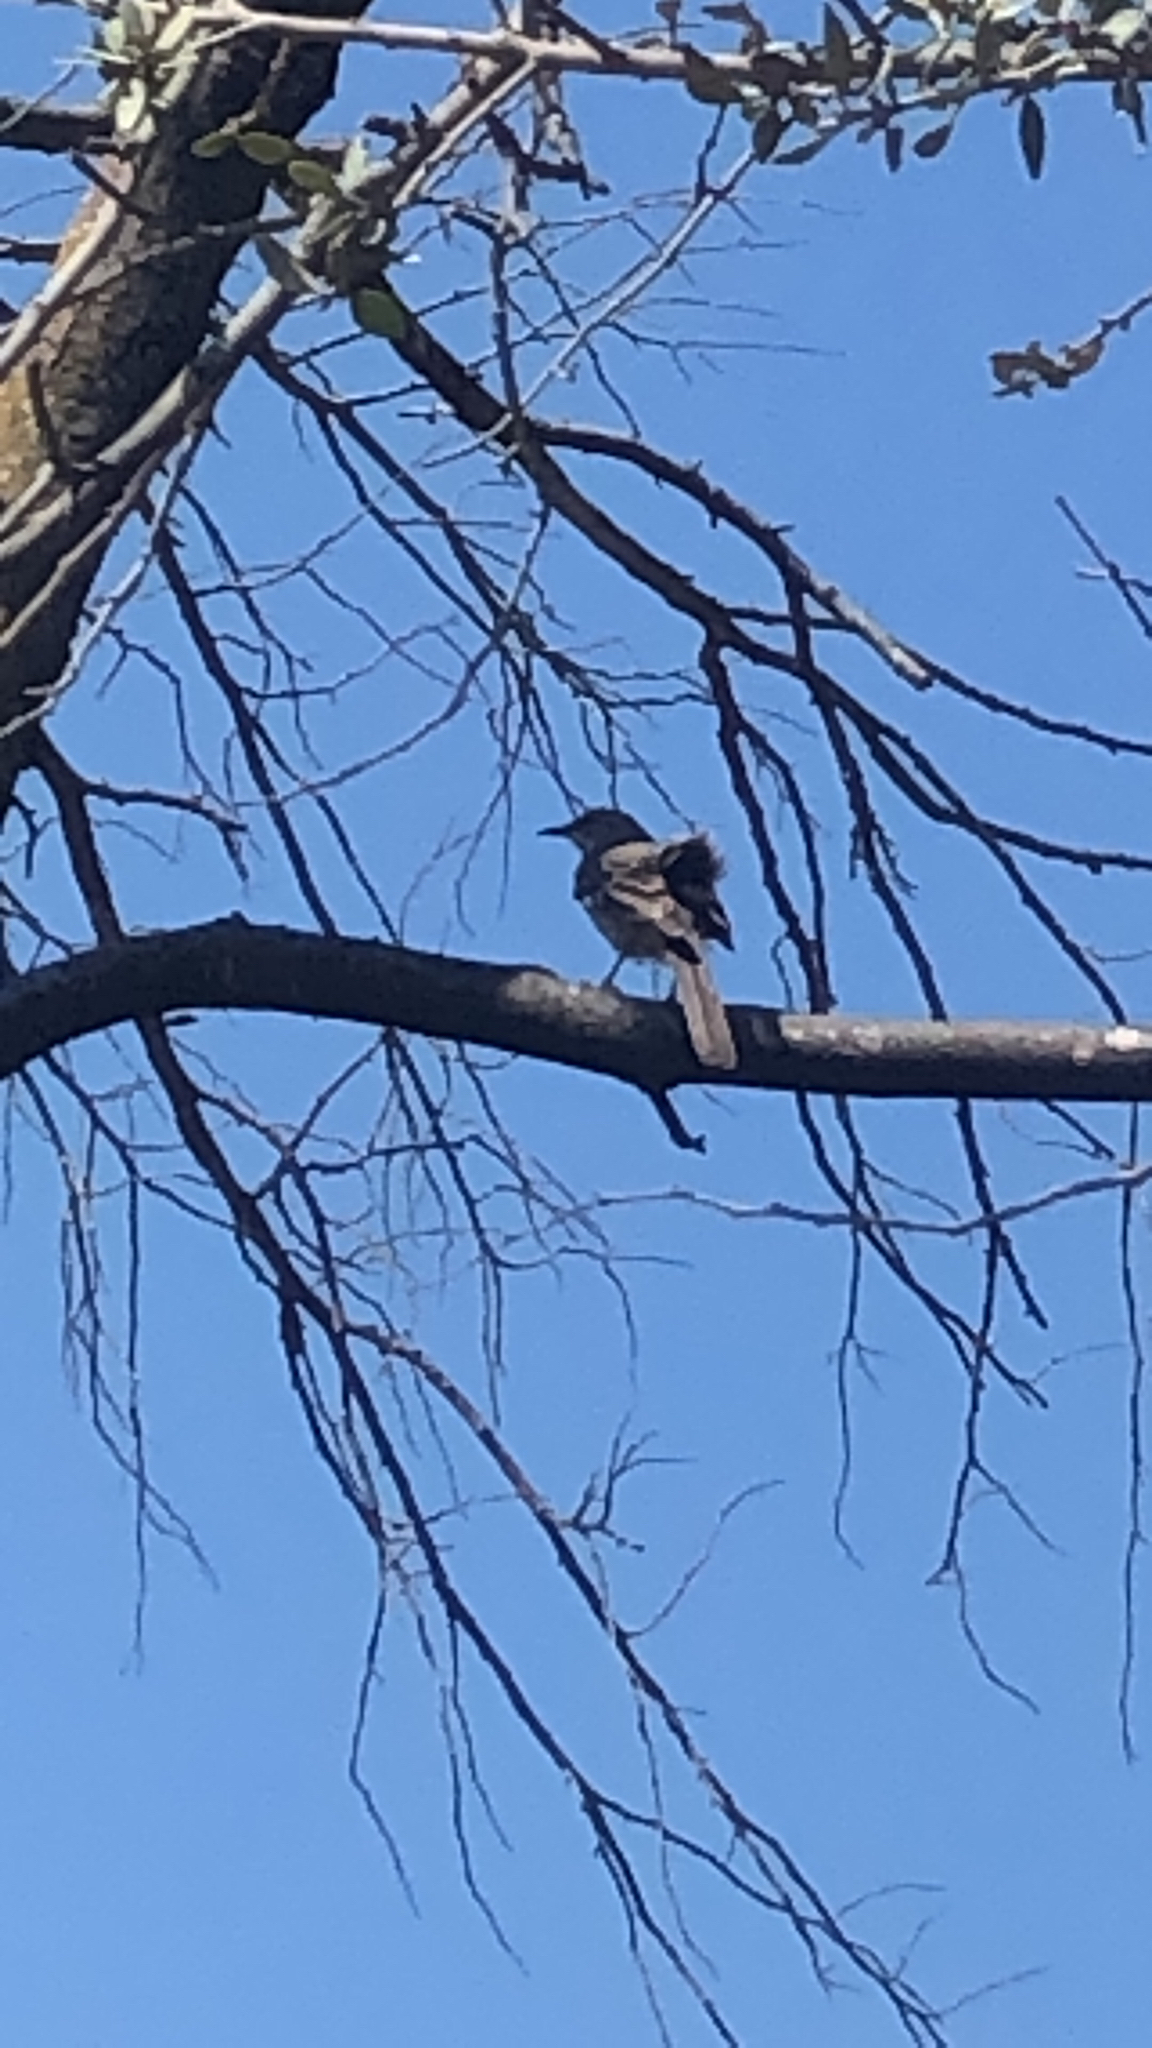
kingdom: Animalia
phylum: Chordata
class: Aves
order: Passeriformes
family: Mimidae
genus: Mimus
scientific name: Mimus polyglottos
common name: Northern mockingbird
